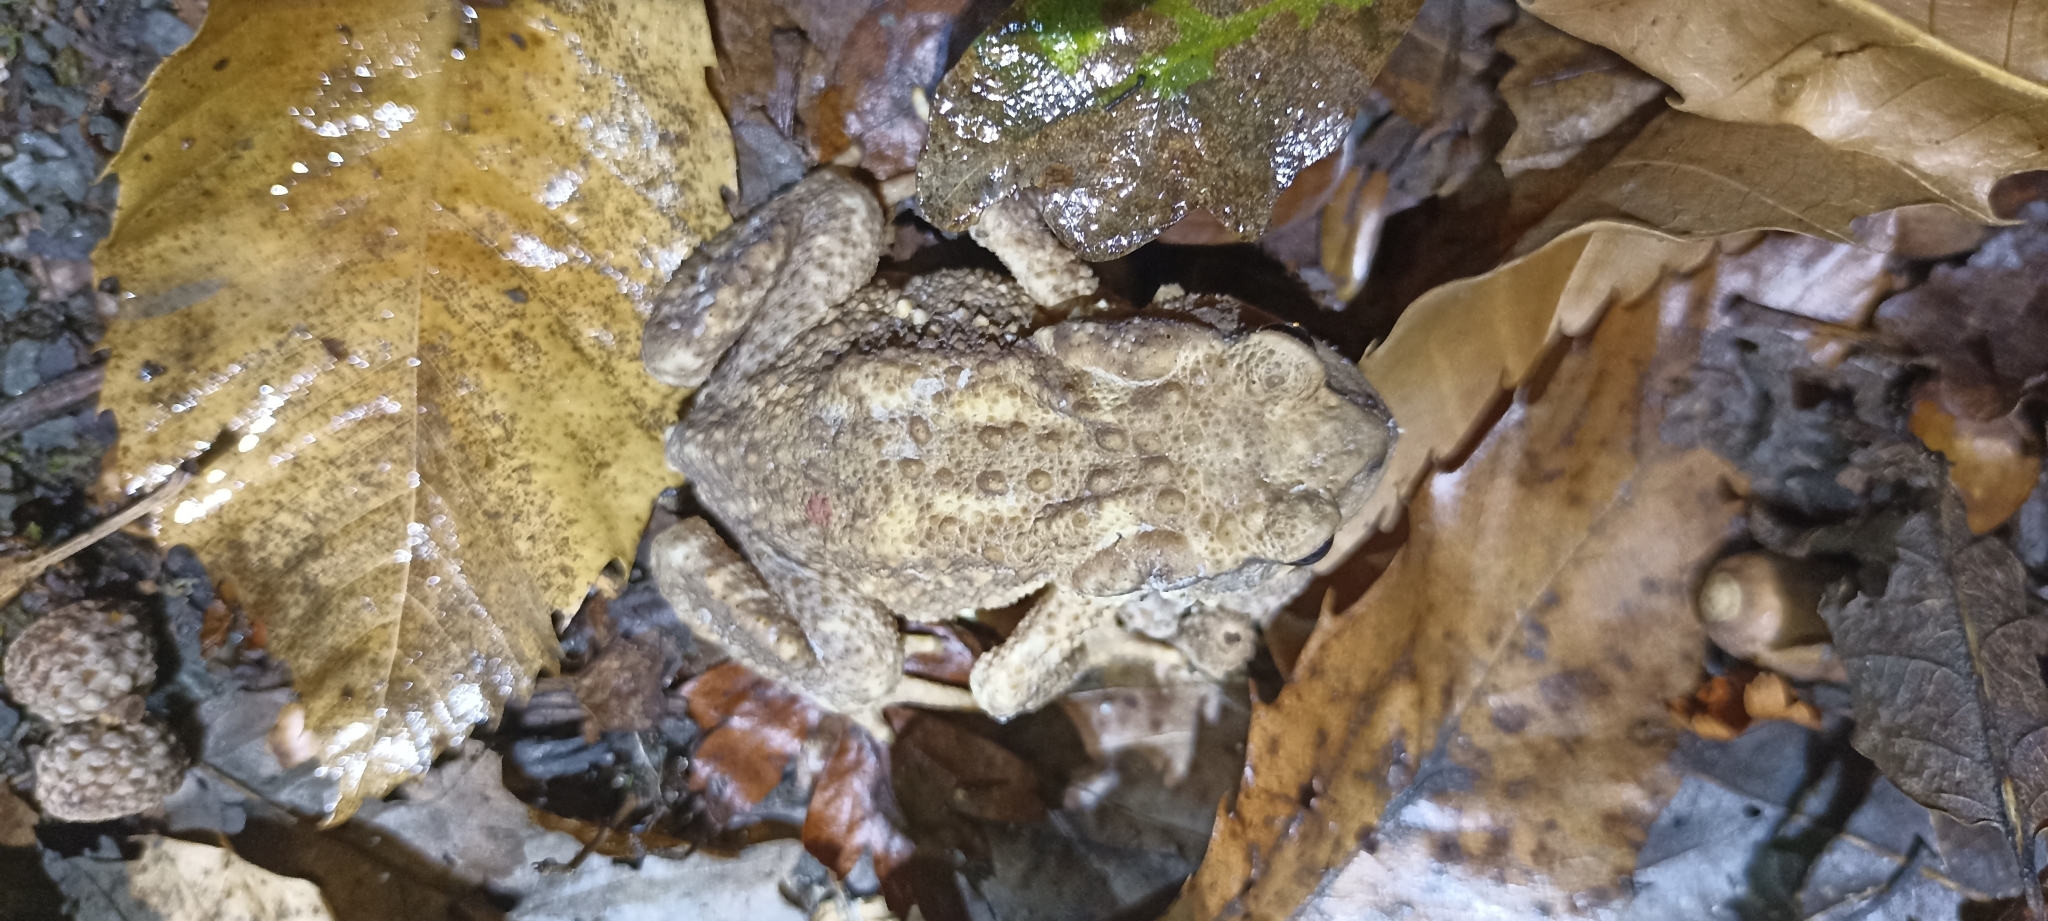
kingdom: Animalia
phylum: Chordata
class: Amphibia
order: Anura
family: Bufonidae
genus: Bufo
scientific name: Bufo spinosus
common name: Western common toad
